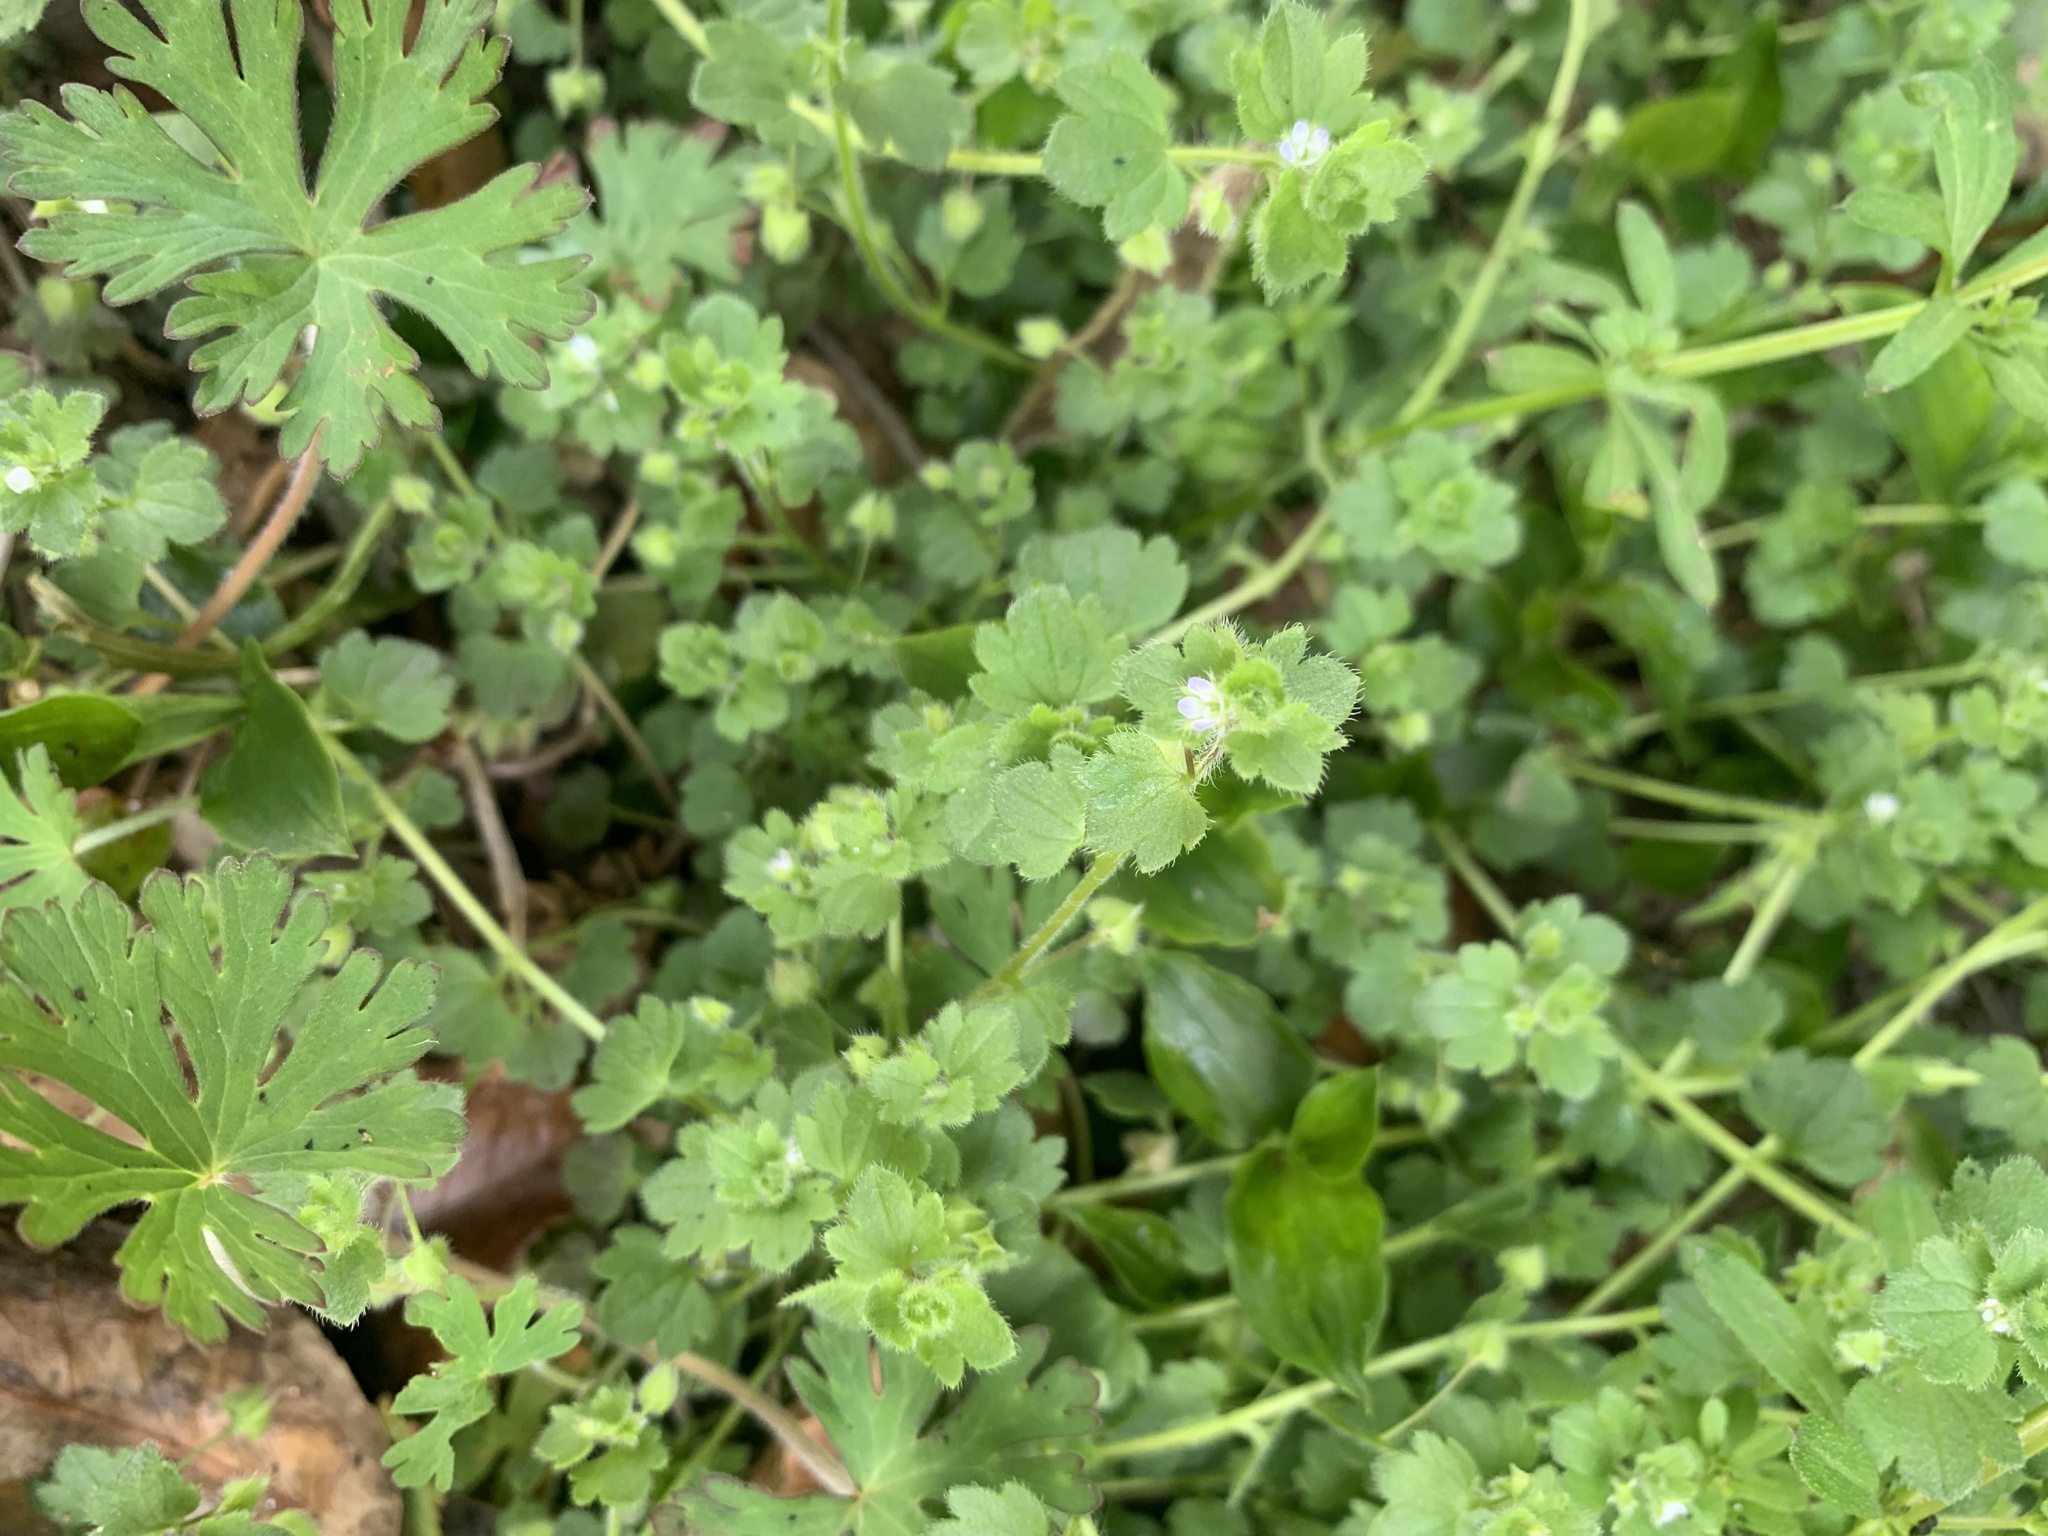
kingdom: Plantae
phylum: Tracheophyta
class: Magnoliopsida
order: Lamiales
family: Plantaginaceae
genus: Veronica
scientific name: Veronica hederifolia
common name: Ivy-leaved speedwell
